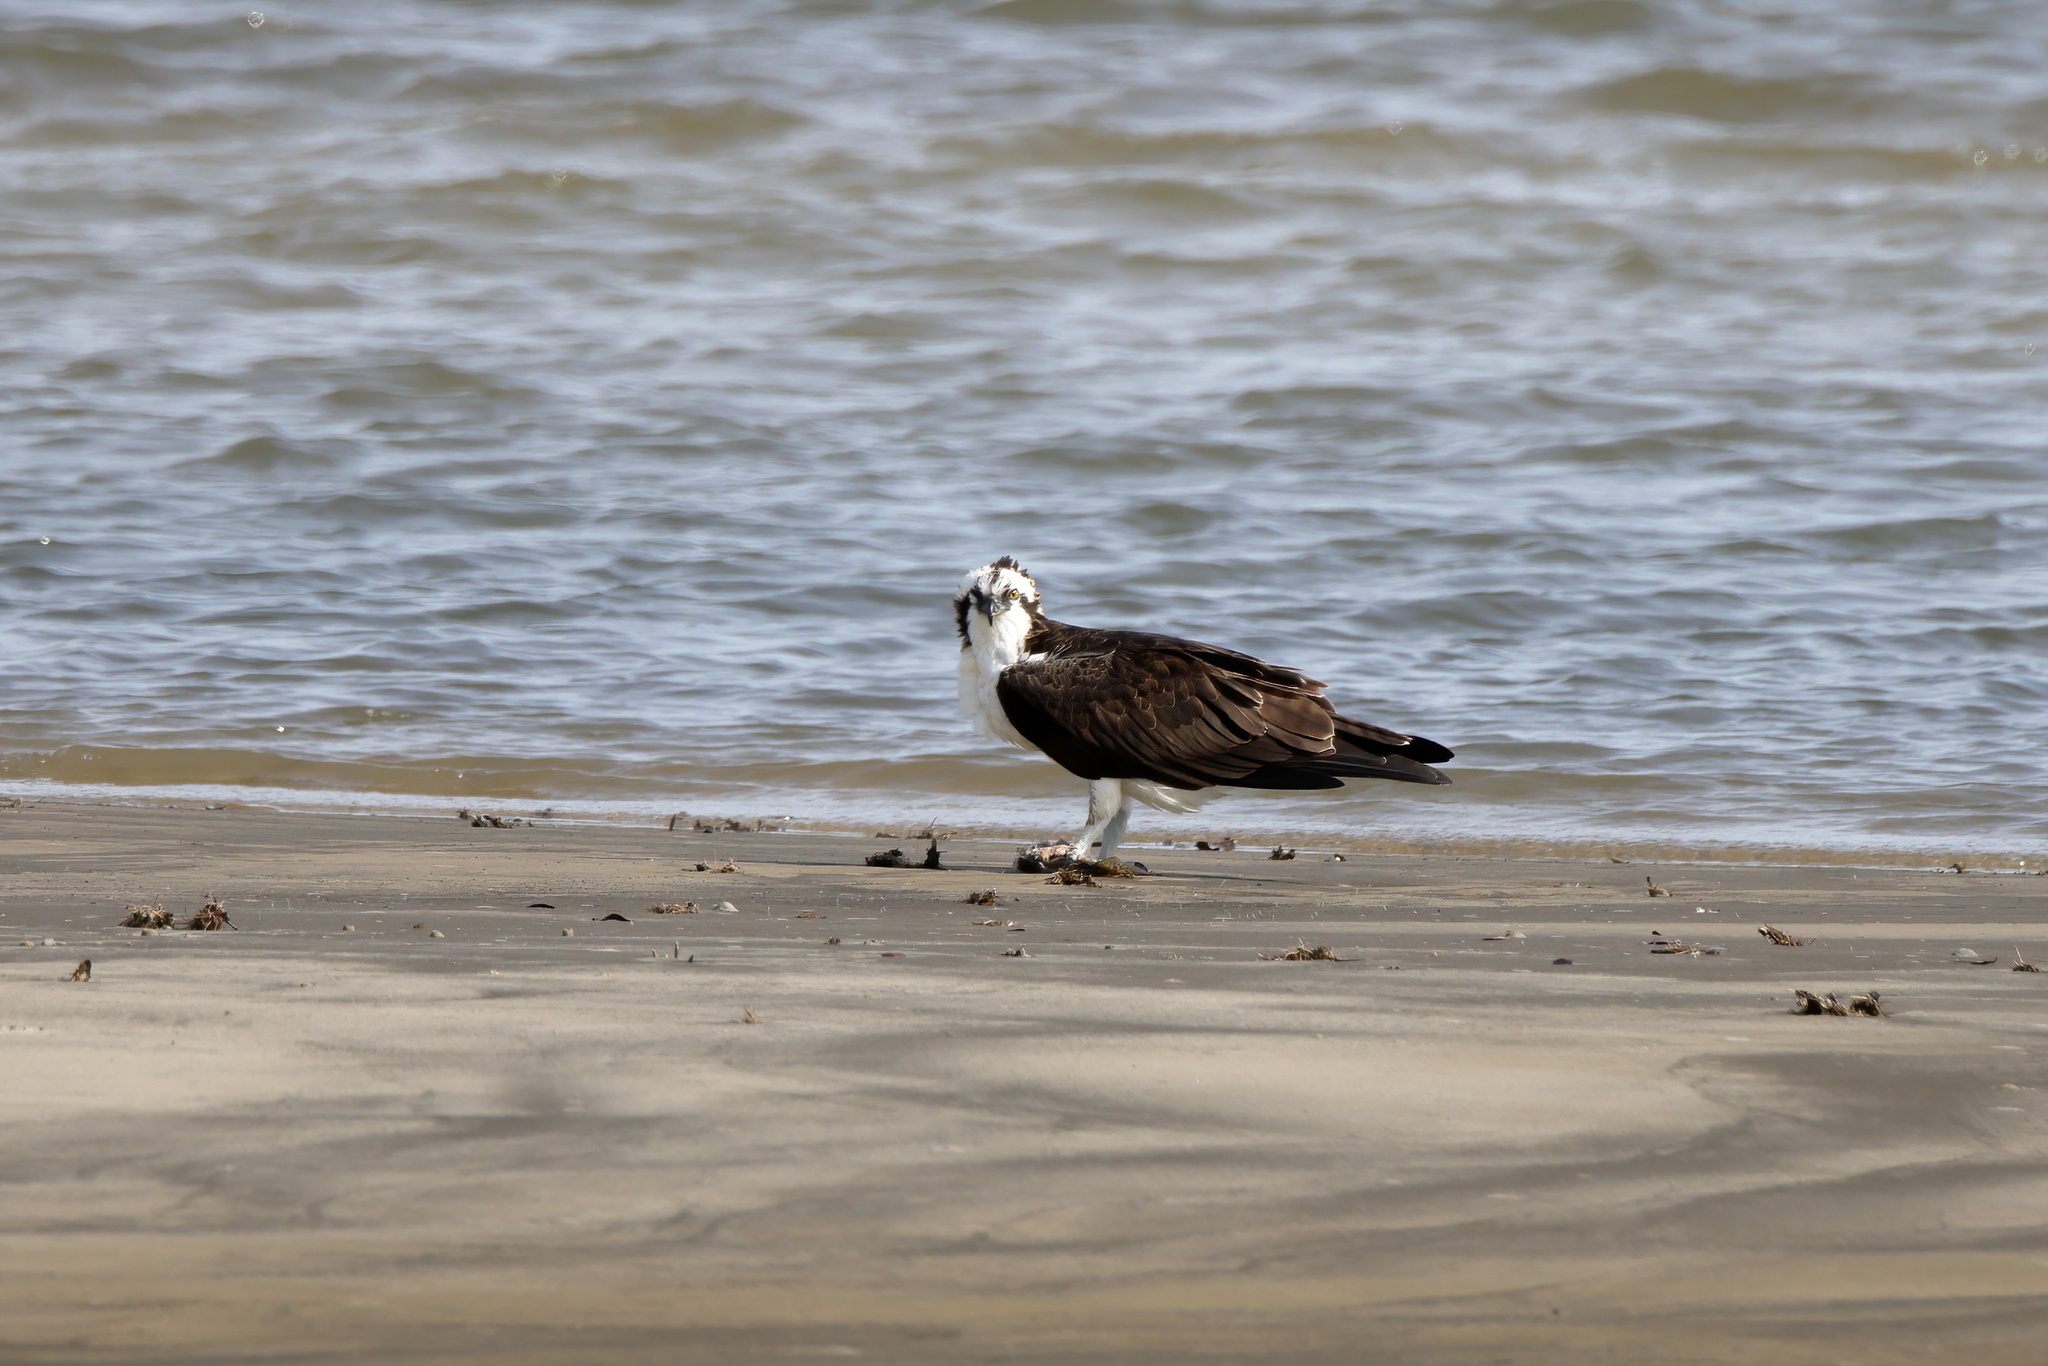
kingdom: Animalia
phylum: Chordata
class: Aves
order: Accipitriformes
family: Pandionidae
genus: Pandion
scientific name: Pandion haliaetus
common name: Osprey
